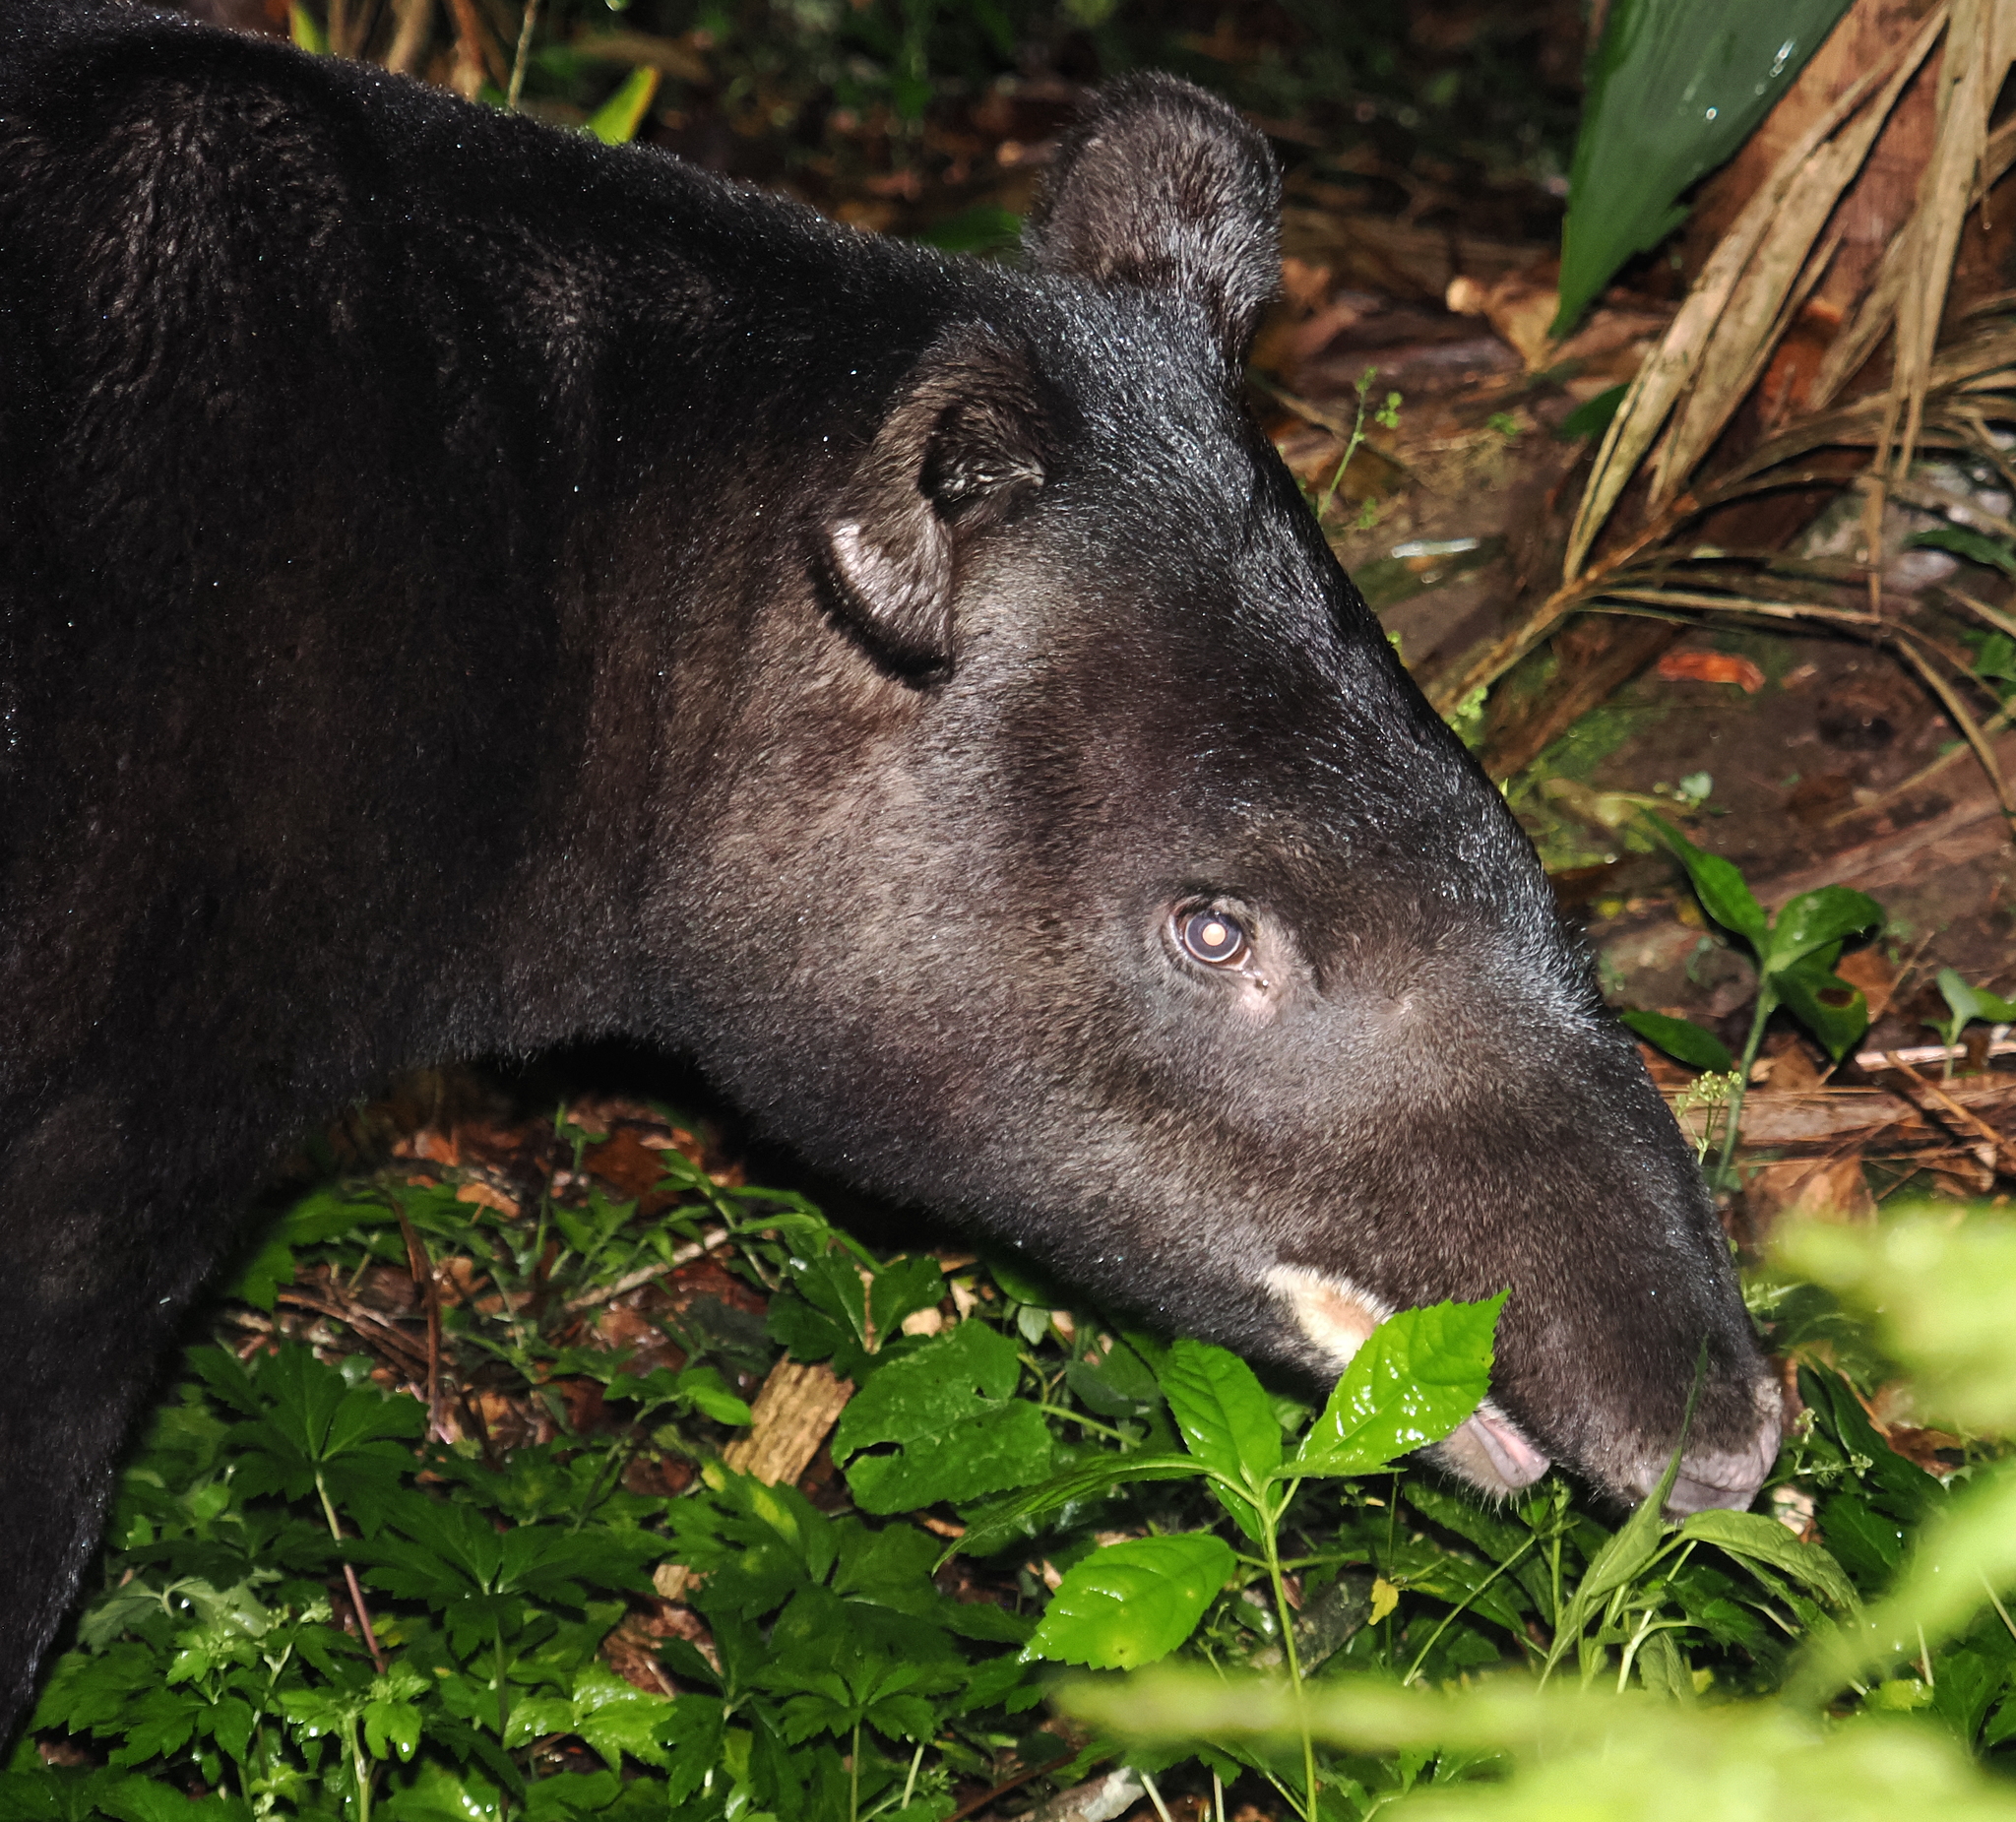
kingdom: Animalia
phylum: Chordata
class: Mammalia
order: Perissodactyla
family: Tapiridae
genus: Tapirus
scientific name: Tapirus pinchaque
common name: Mountain tapir
